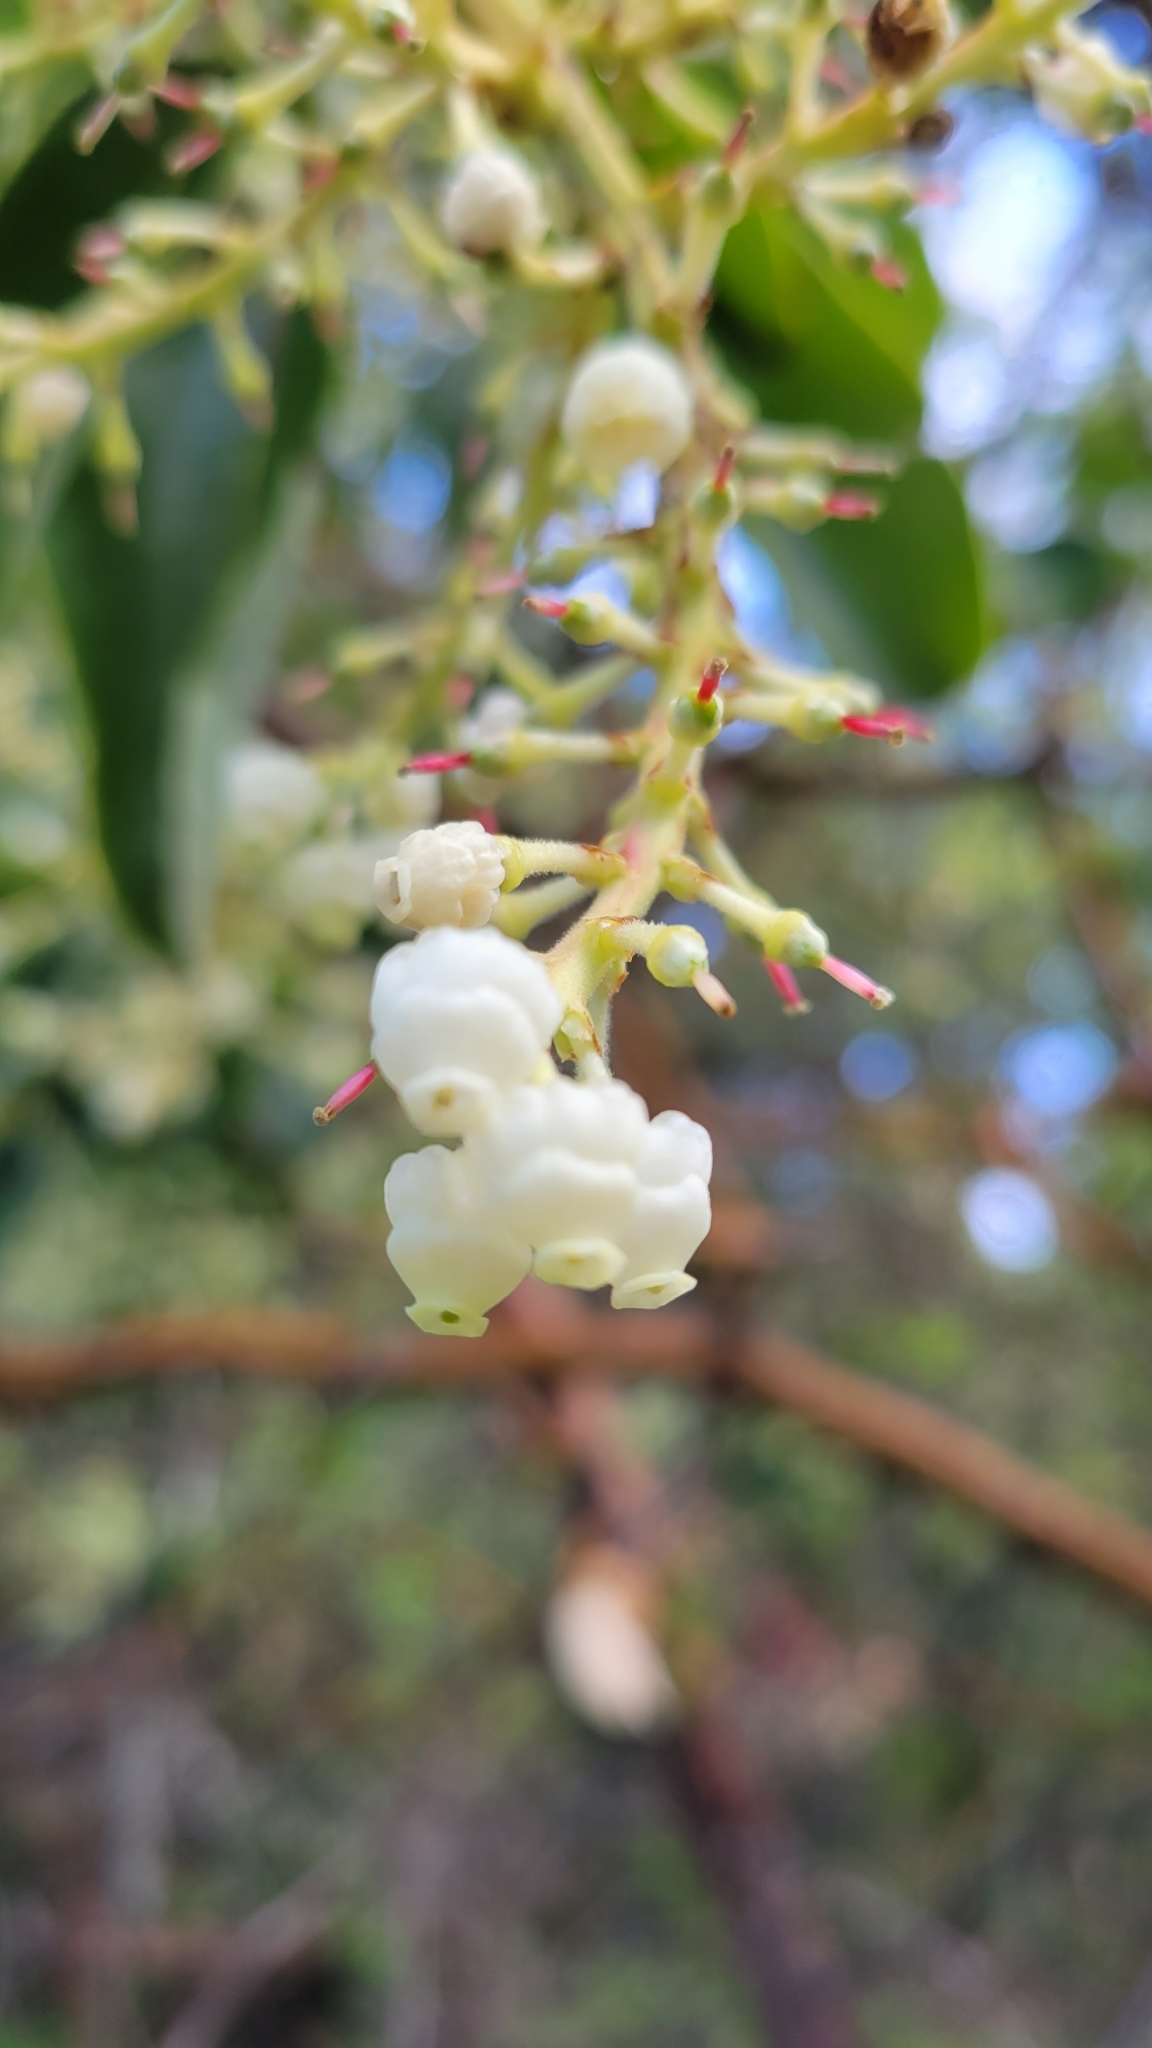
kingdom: Plantae
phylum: Tracheophyta
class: Magnoliopsida
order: Ericales
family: Ericaceae
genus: Arbutus
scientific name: Arbutus menziesii
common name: Pacific madrone
